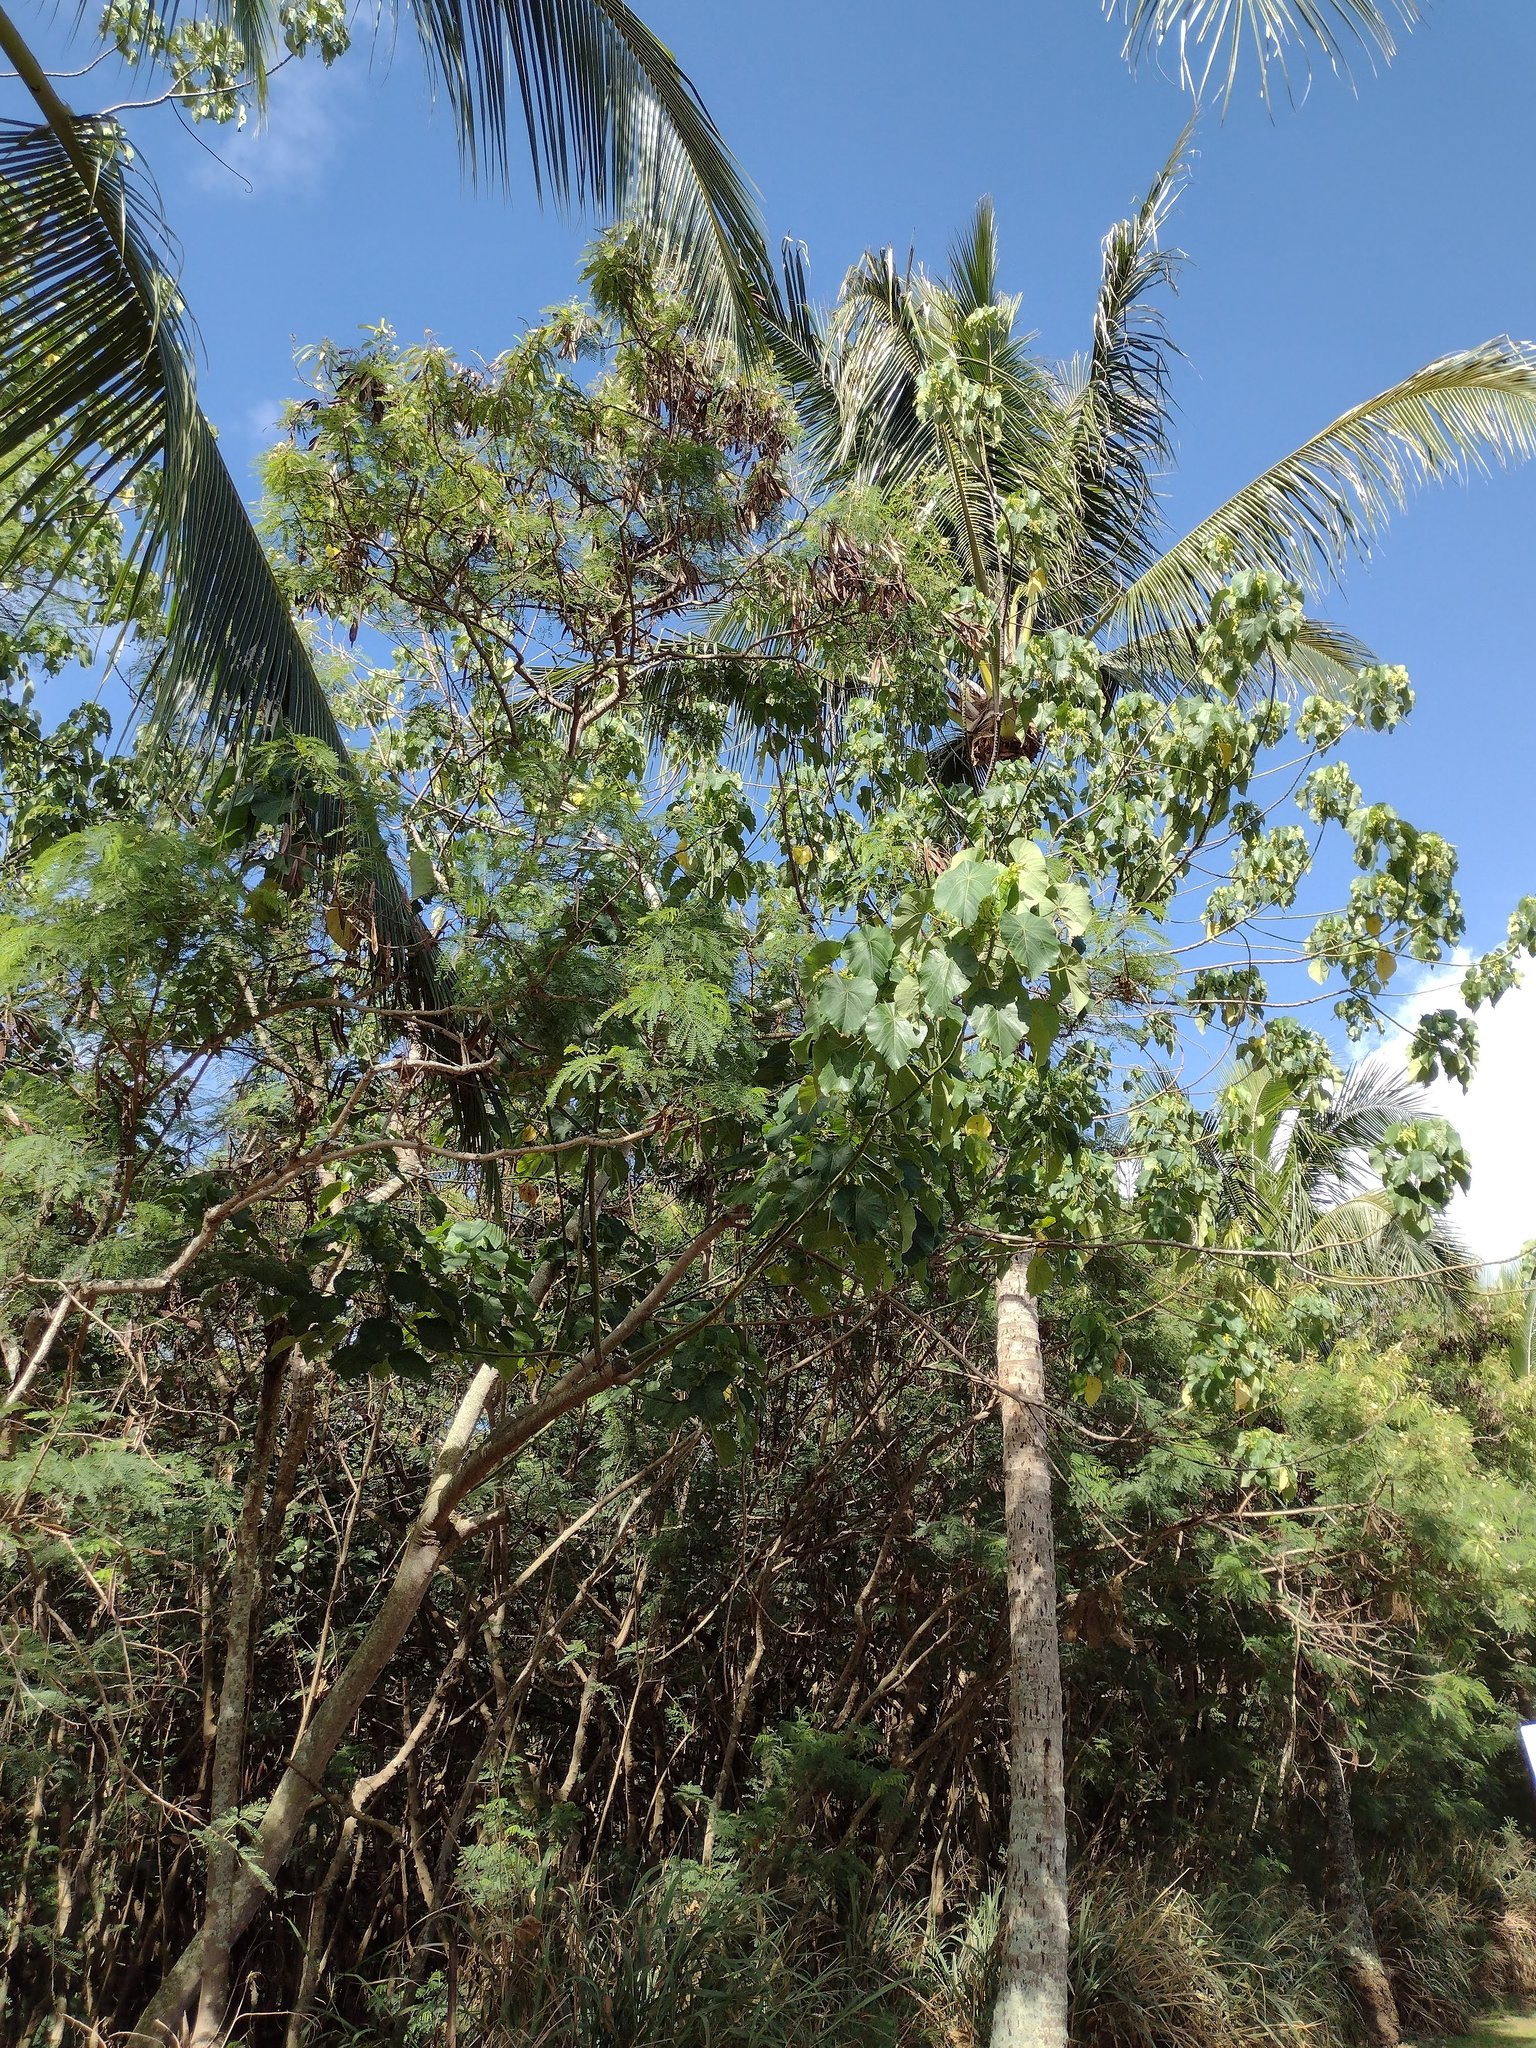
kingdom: Plantae
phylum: Tracheophyta
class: Magnoliopsida
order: Malpighiales
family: Euphorbiaceae
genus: Macaranga
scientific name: Macaranga tanarius
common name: Parasol leaf tree
